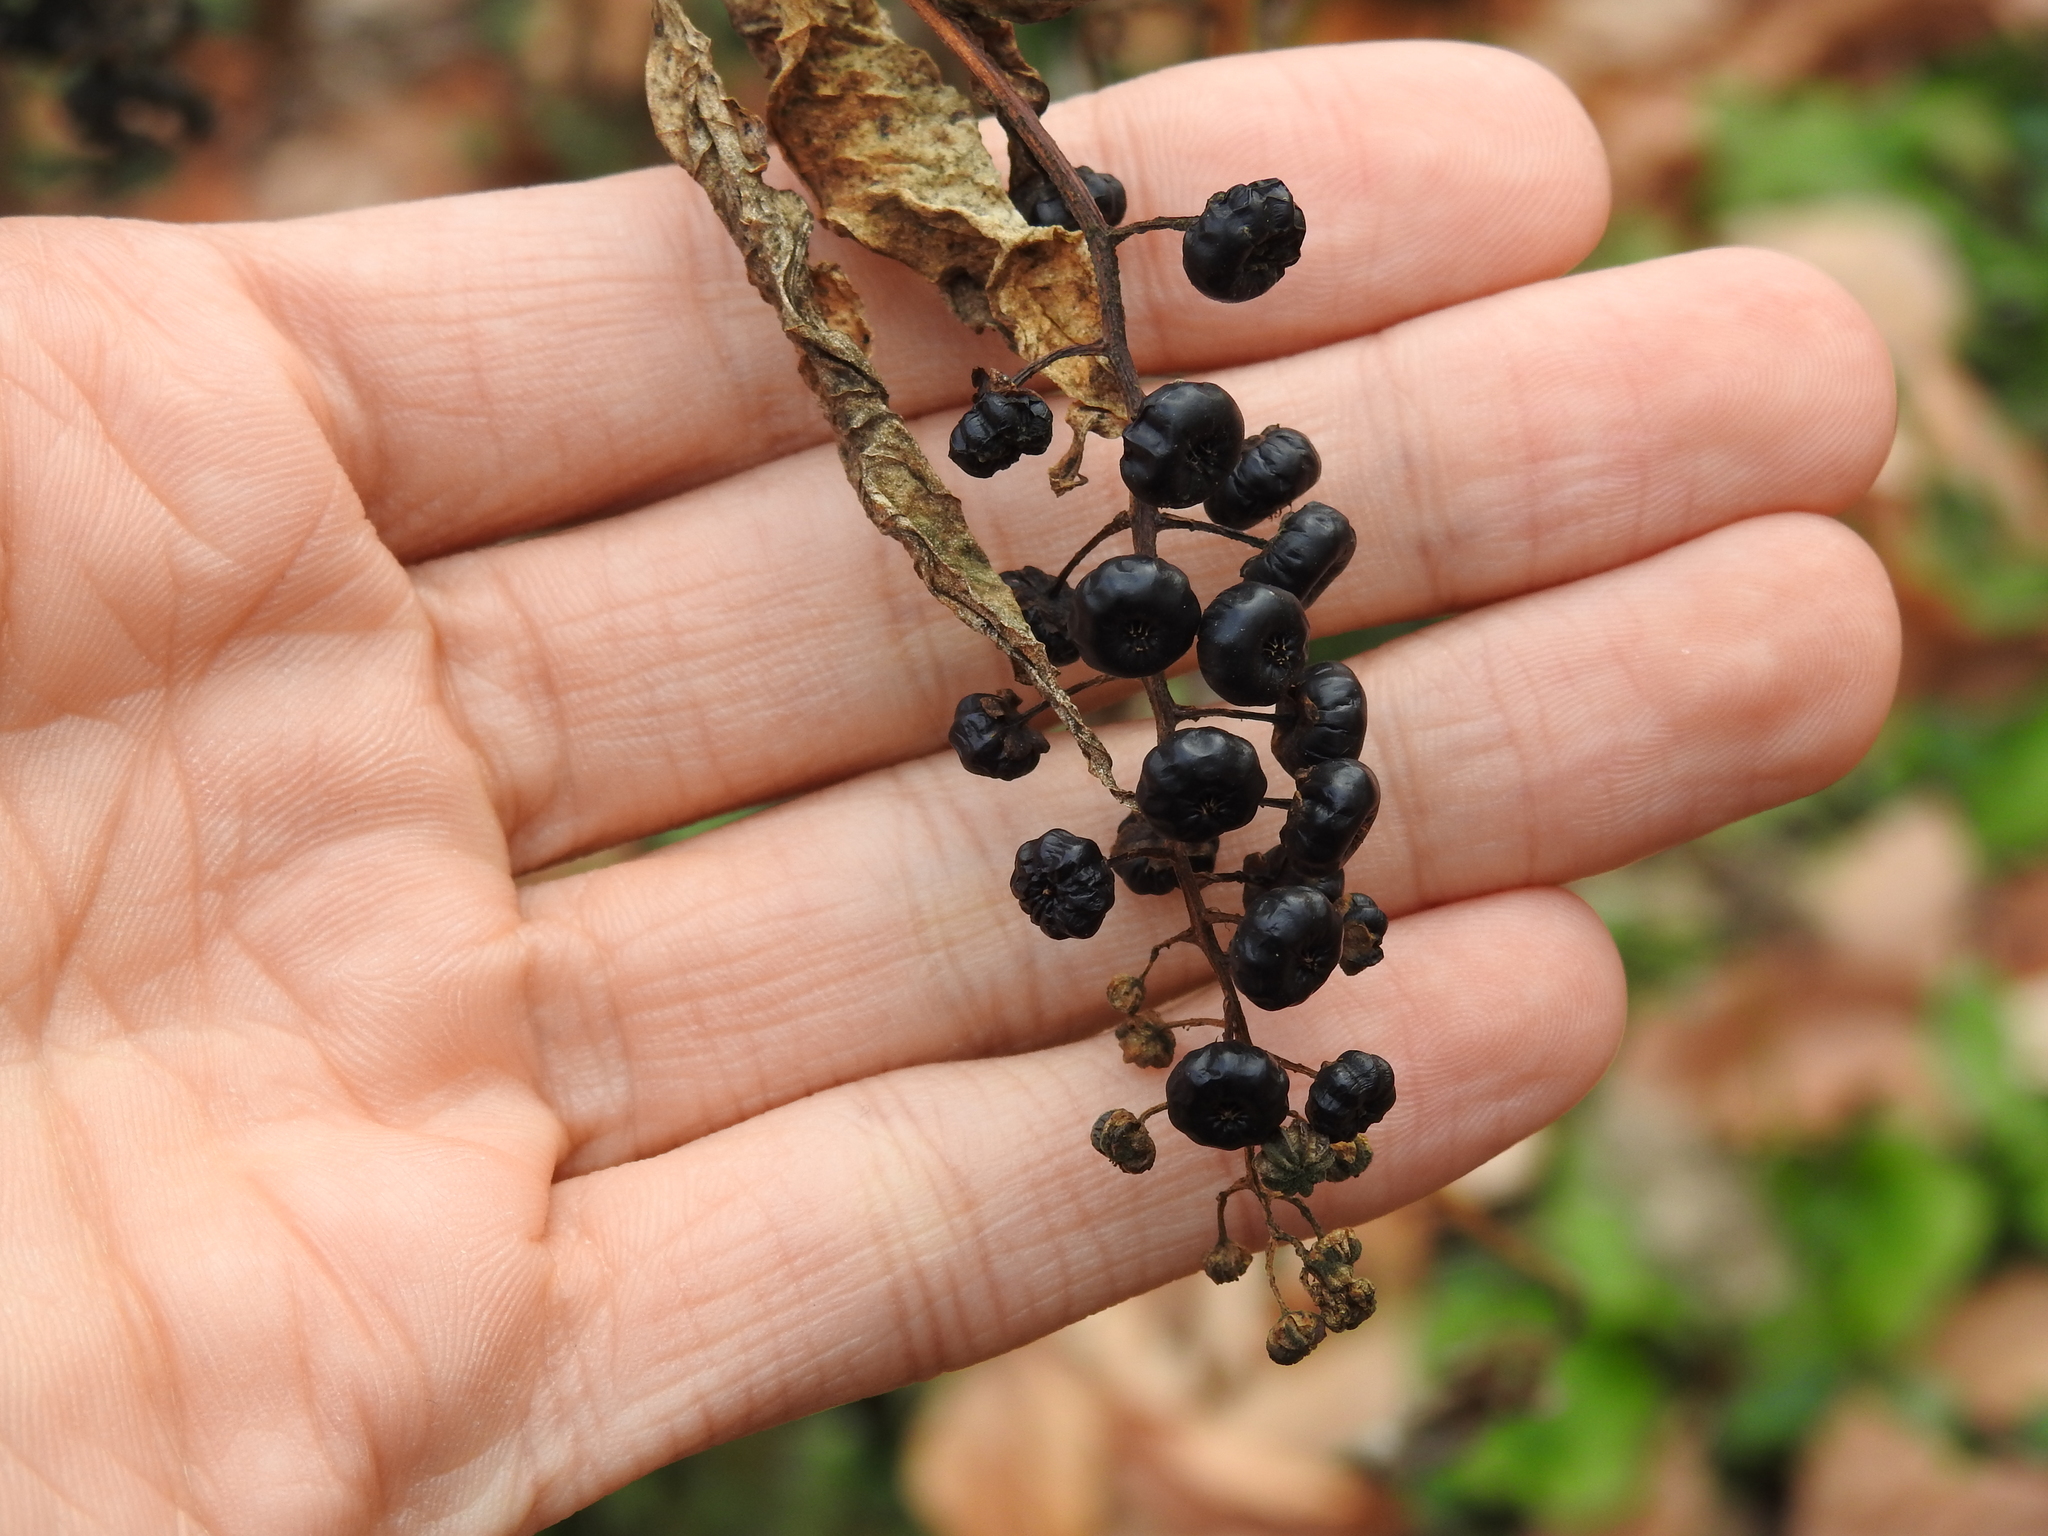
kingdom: Plantae
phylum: Tracheophyta
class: Magnoliopsida
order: Caryophyllales
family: Phytolaccaceae
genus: Phytolacca
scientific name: Phytolacca americana
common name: American pokeweed
